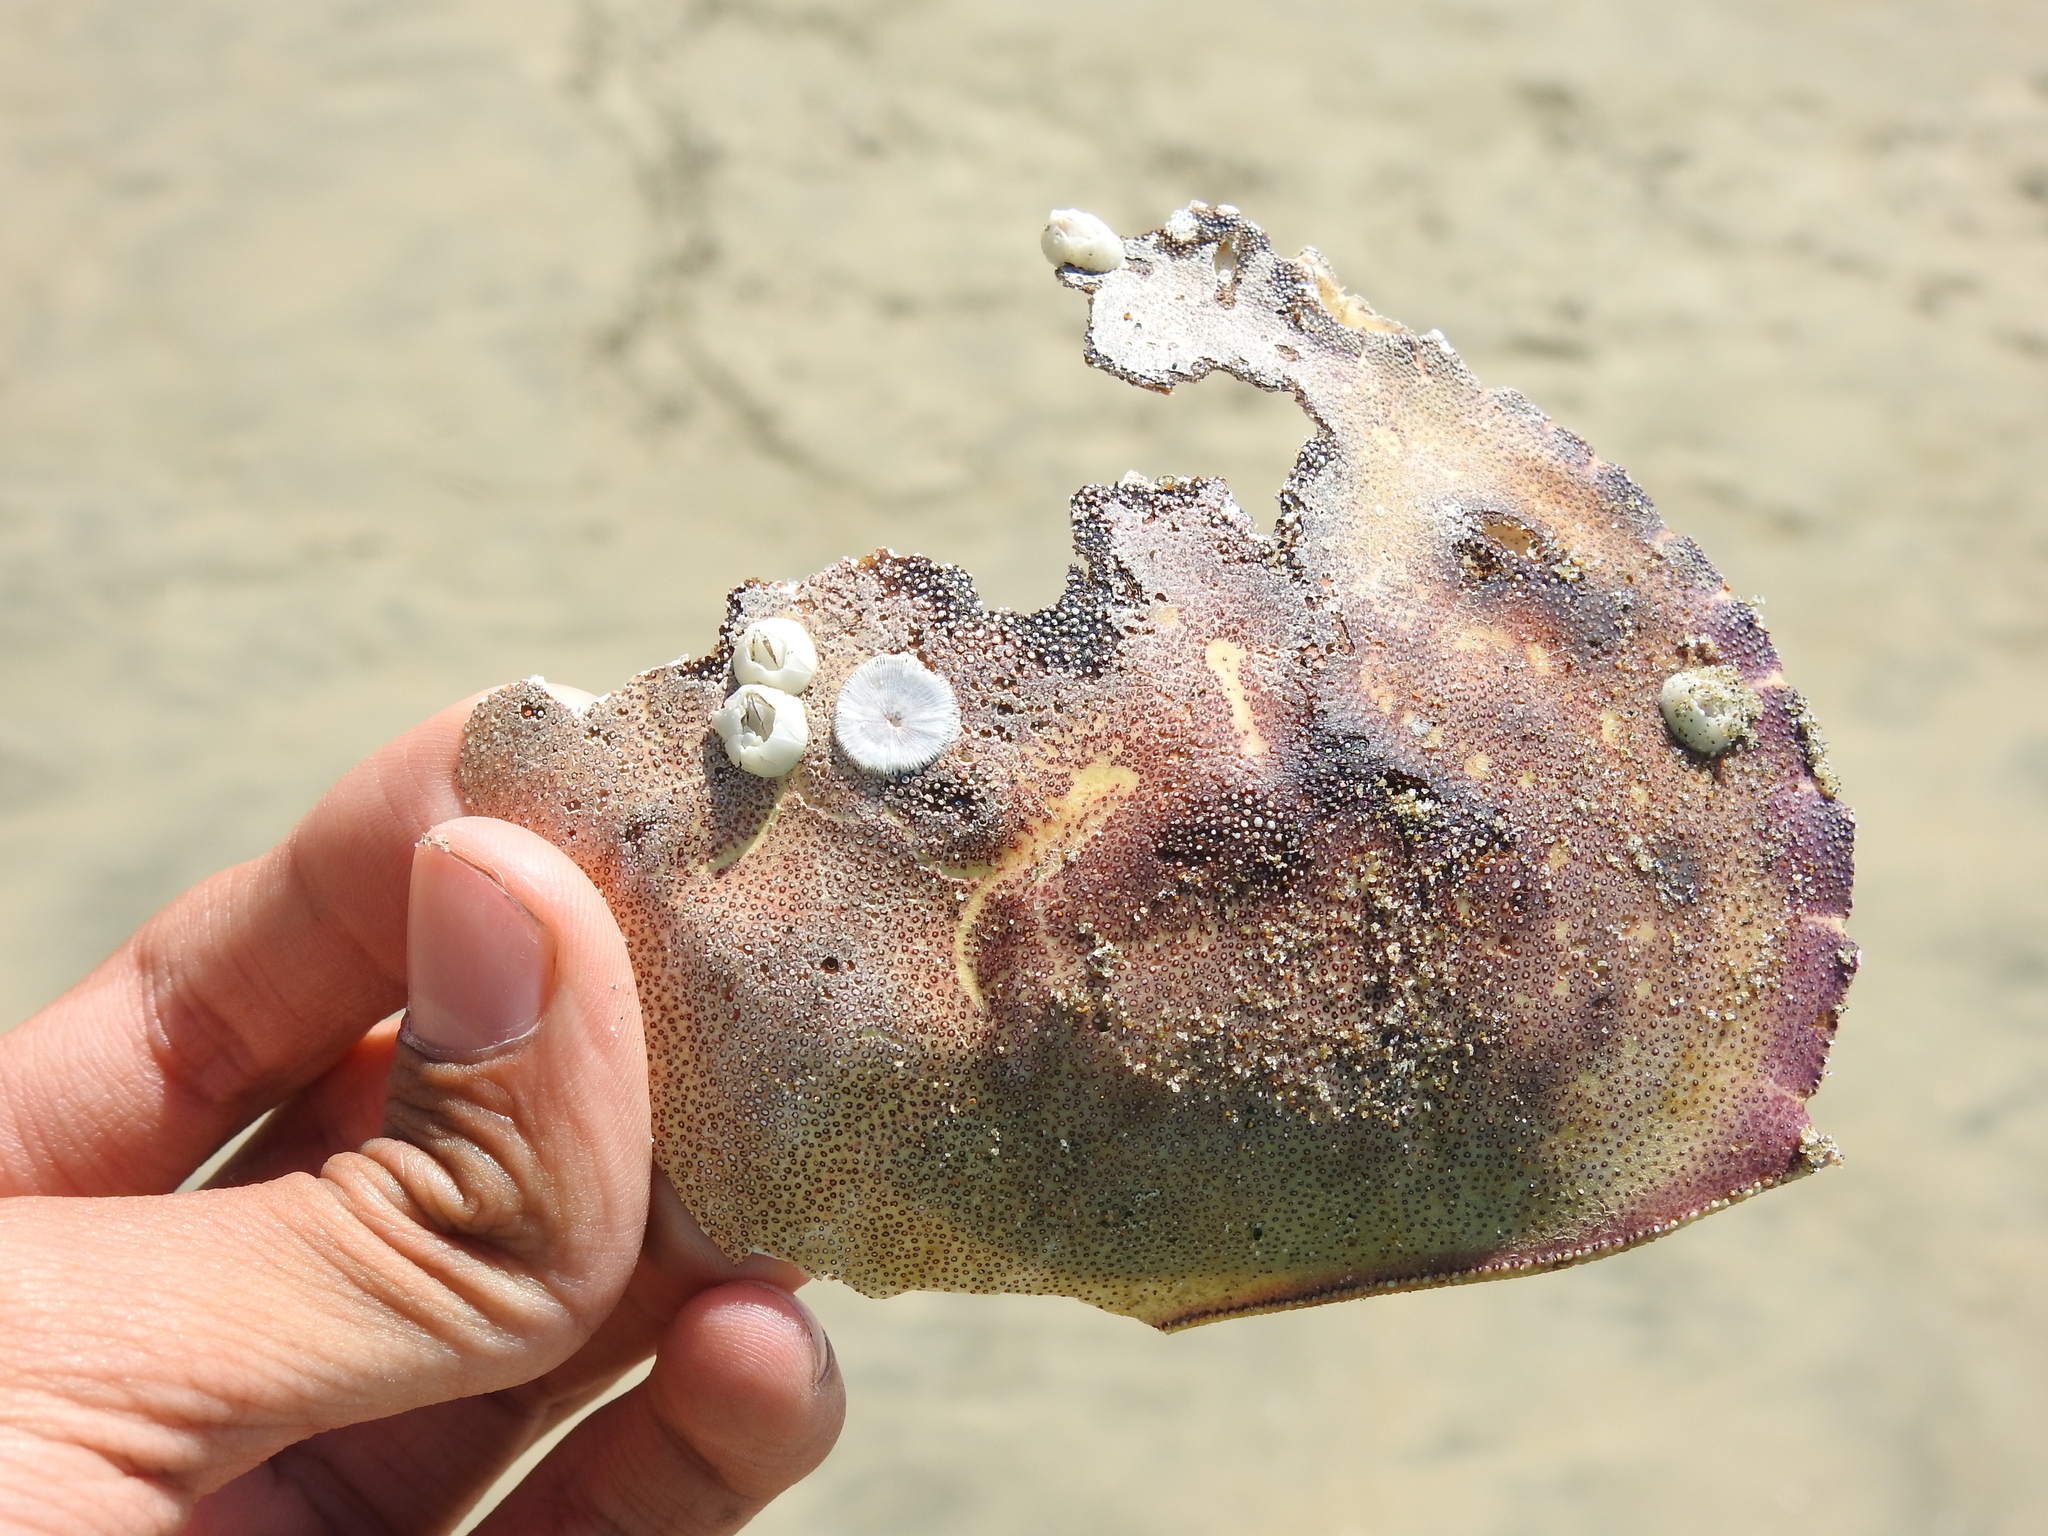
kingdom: Animalia
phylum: Arthropoda
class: Malacostraca
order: Decapoda
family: Cancridae
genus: Metacarcinus
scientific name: Metacarcinus magister
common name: Californian crab
